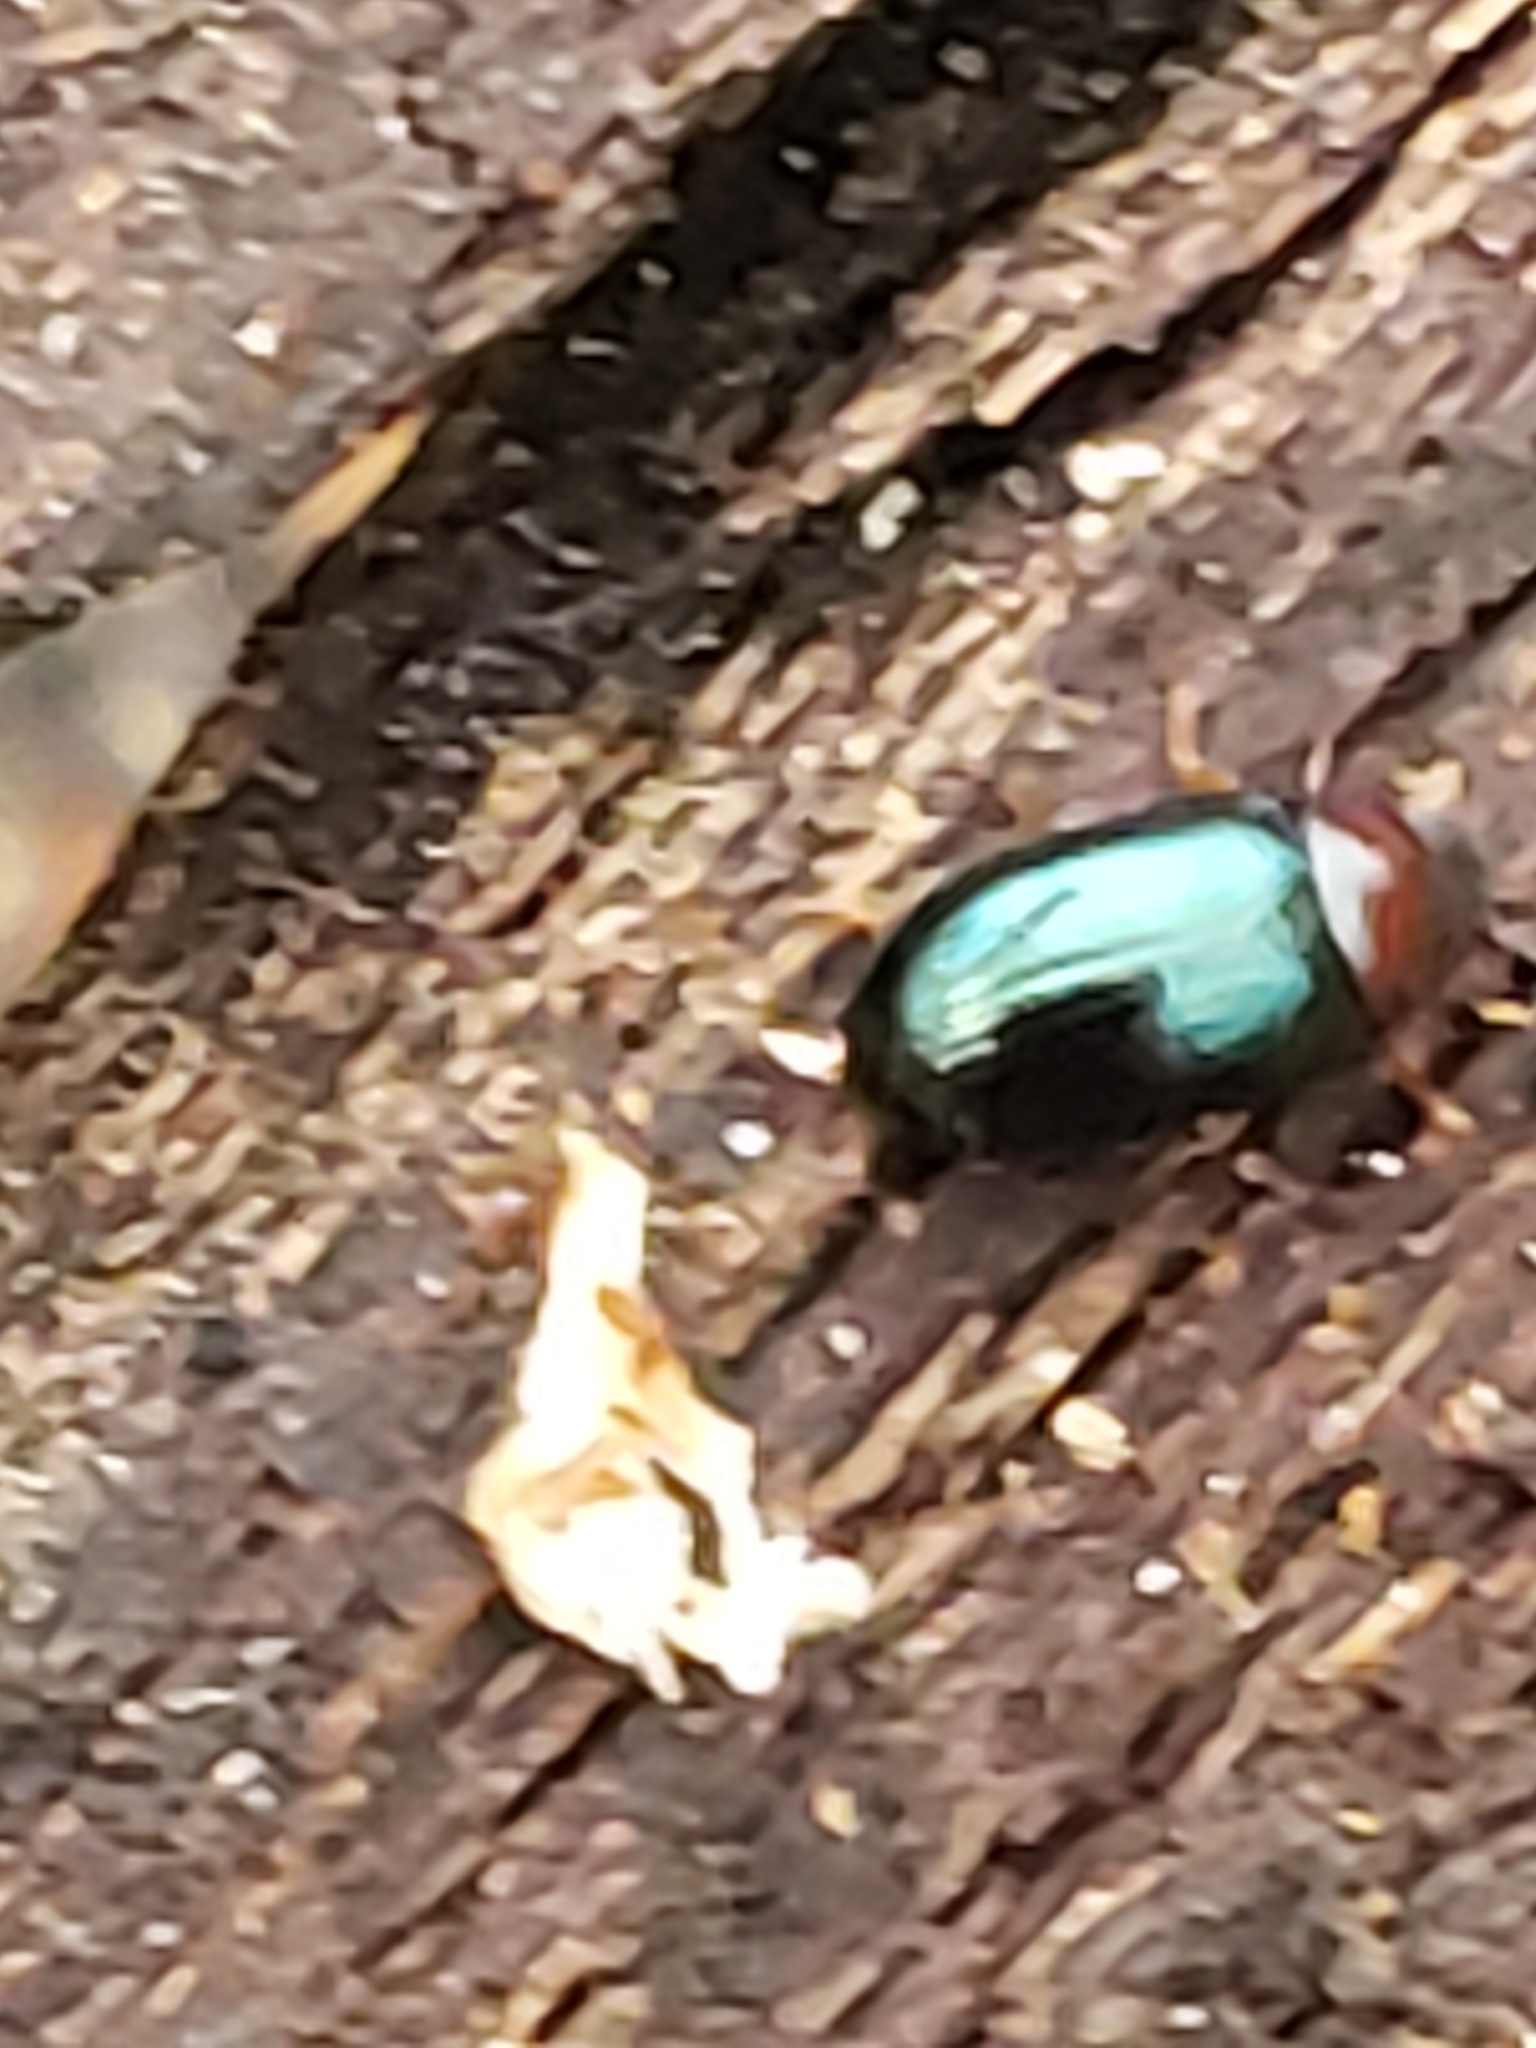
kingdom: Animalia
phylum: Arthropoda
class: Insecta
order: Coleoptera
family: Tenebrionidae
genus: Neomida
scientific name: Neomida bicornis
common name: Two-horned darkling beetle
